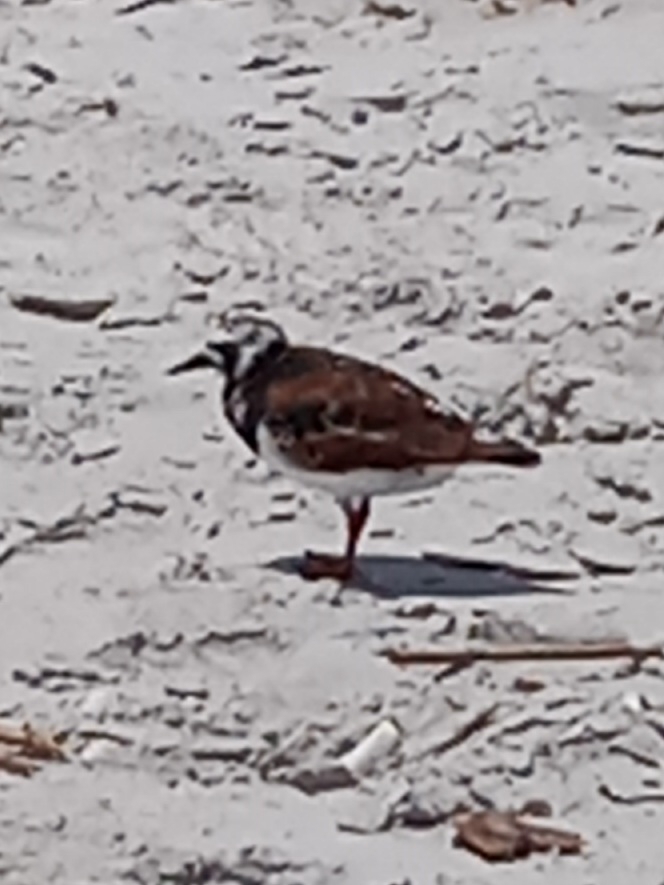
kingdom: Animalia
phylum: Chordata
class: Aves
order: Charadriiformes
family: Scolopacidae
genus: Arenaria
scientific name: Arenaria interpres
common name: Ruddy turnstone
